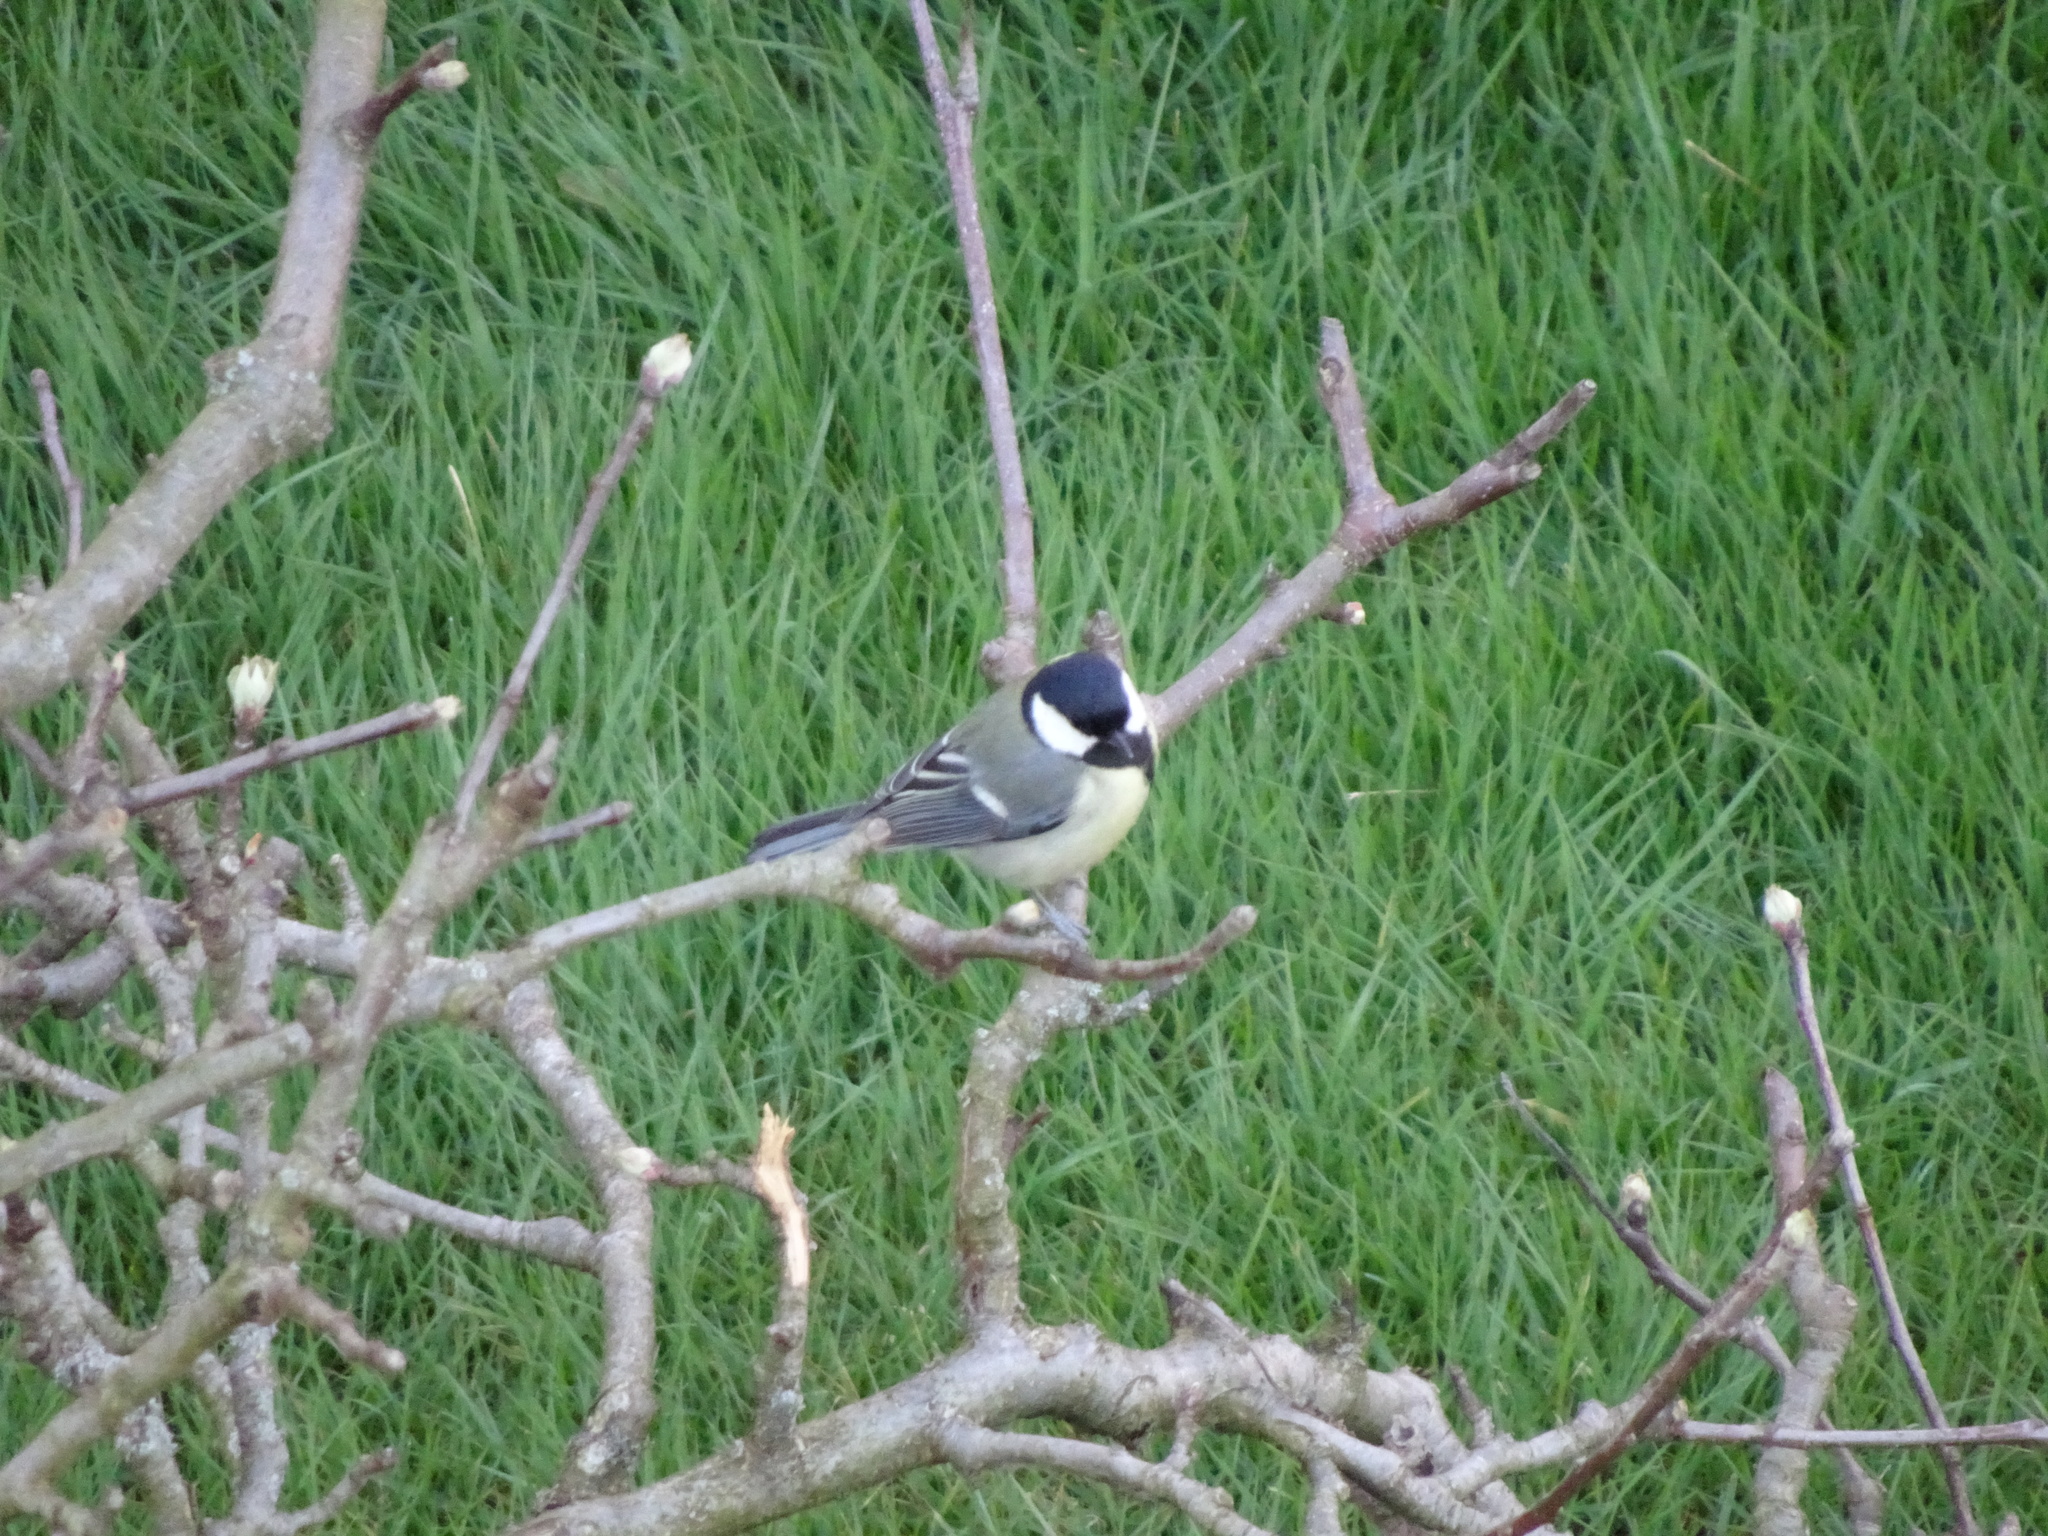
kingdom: Animalia
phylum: Chordata
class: Aves
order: Passeriformes
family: Paridae
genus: Parus
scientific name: Parus major
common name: Great tit
